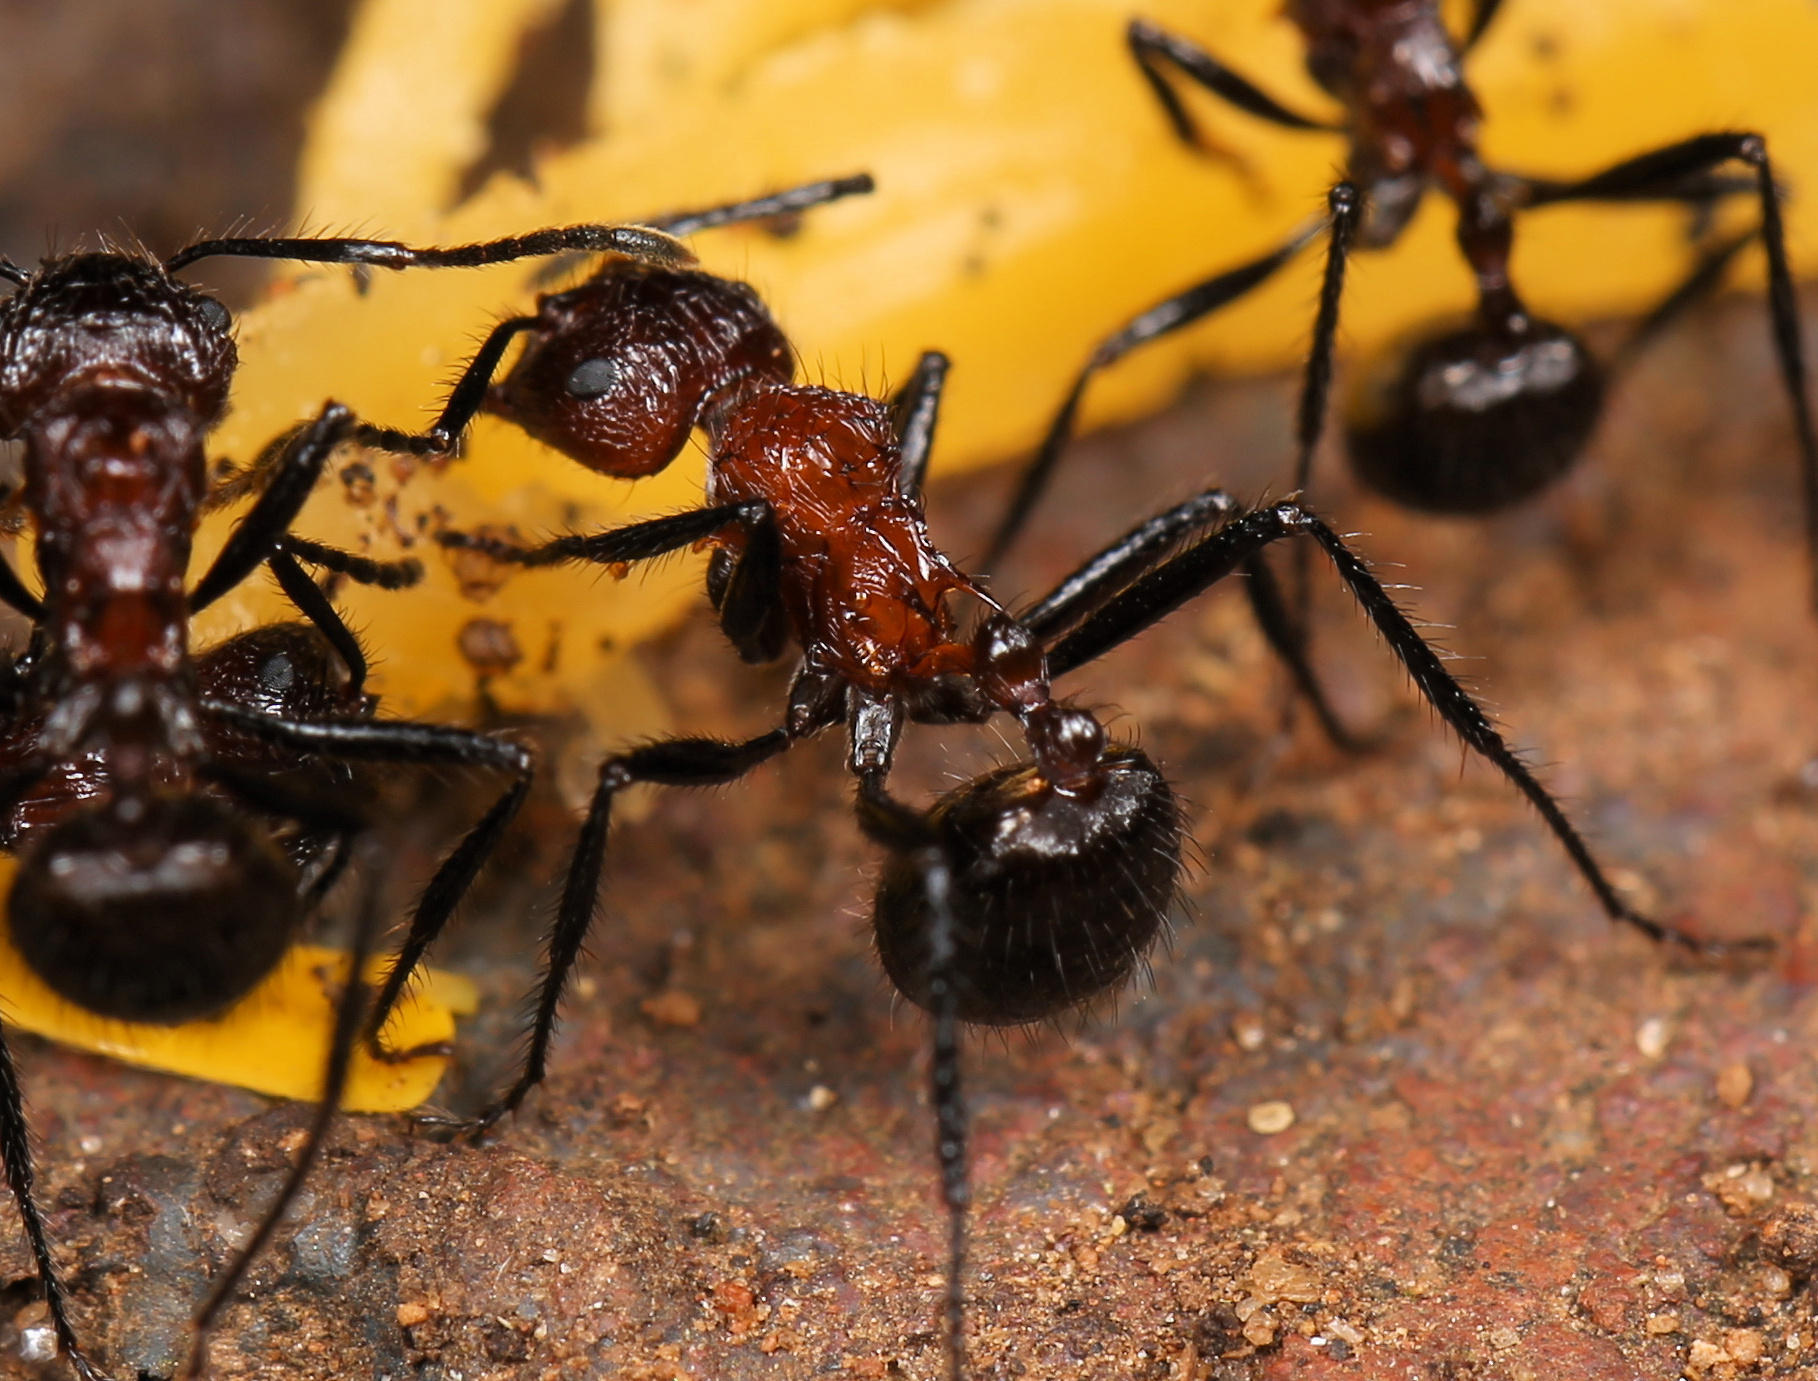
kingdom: Animalia
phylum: Arthropoda
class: Insecta
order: Hymenoptera
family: Formicidae
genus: Myrmicaria
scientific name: Myrmicaria natalensis
